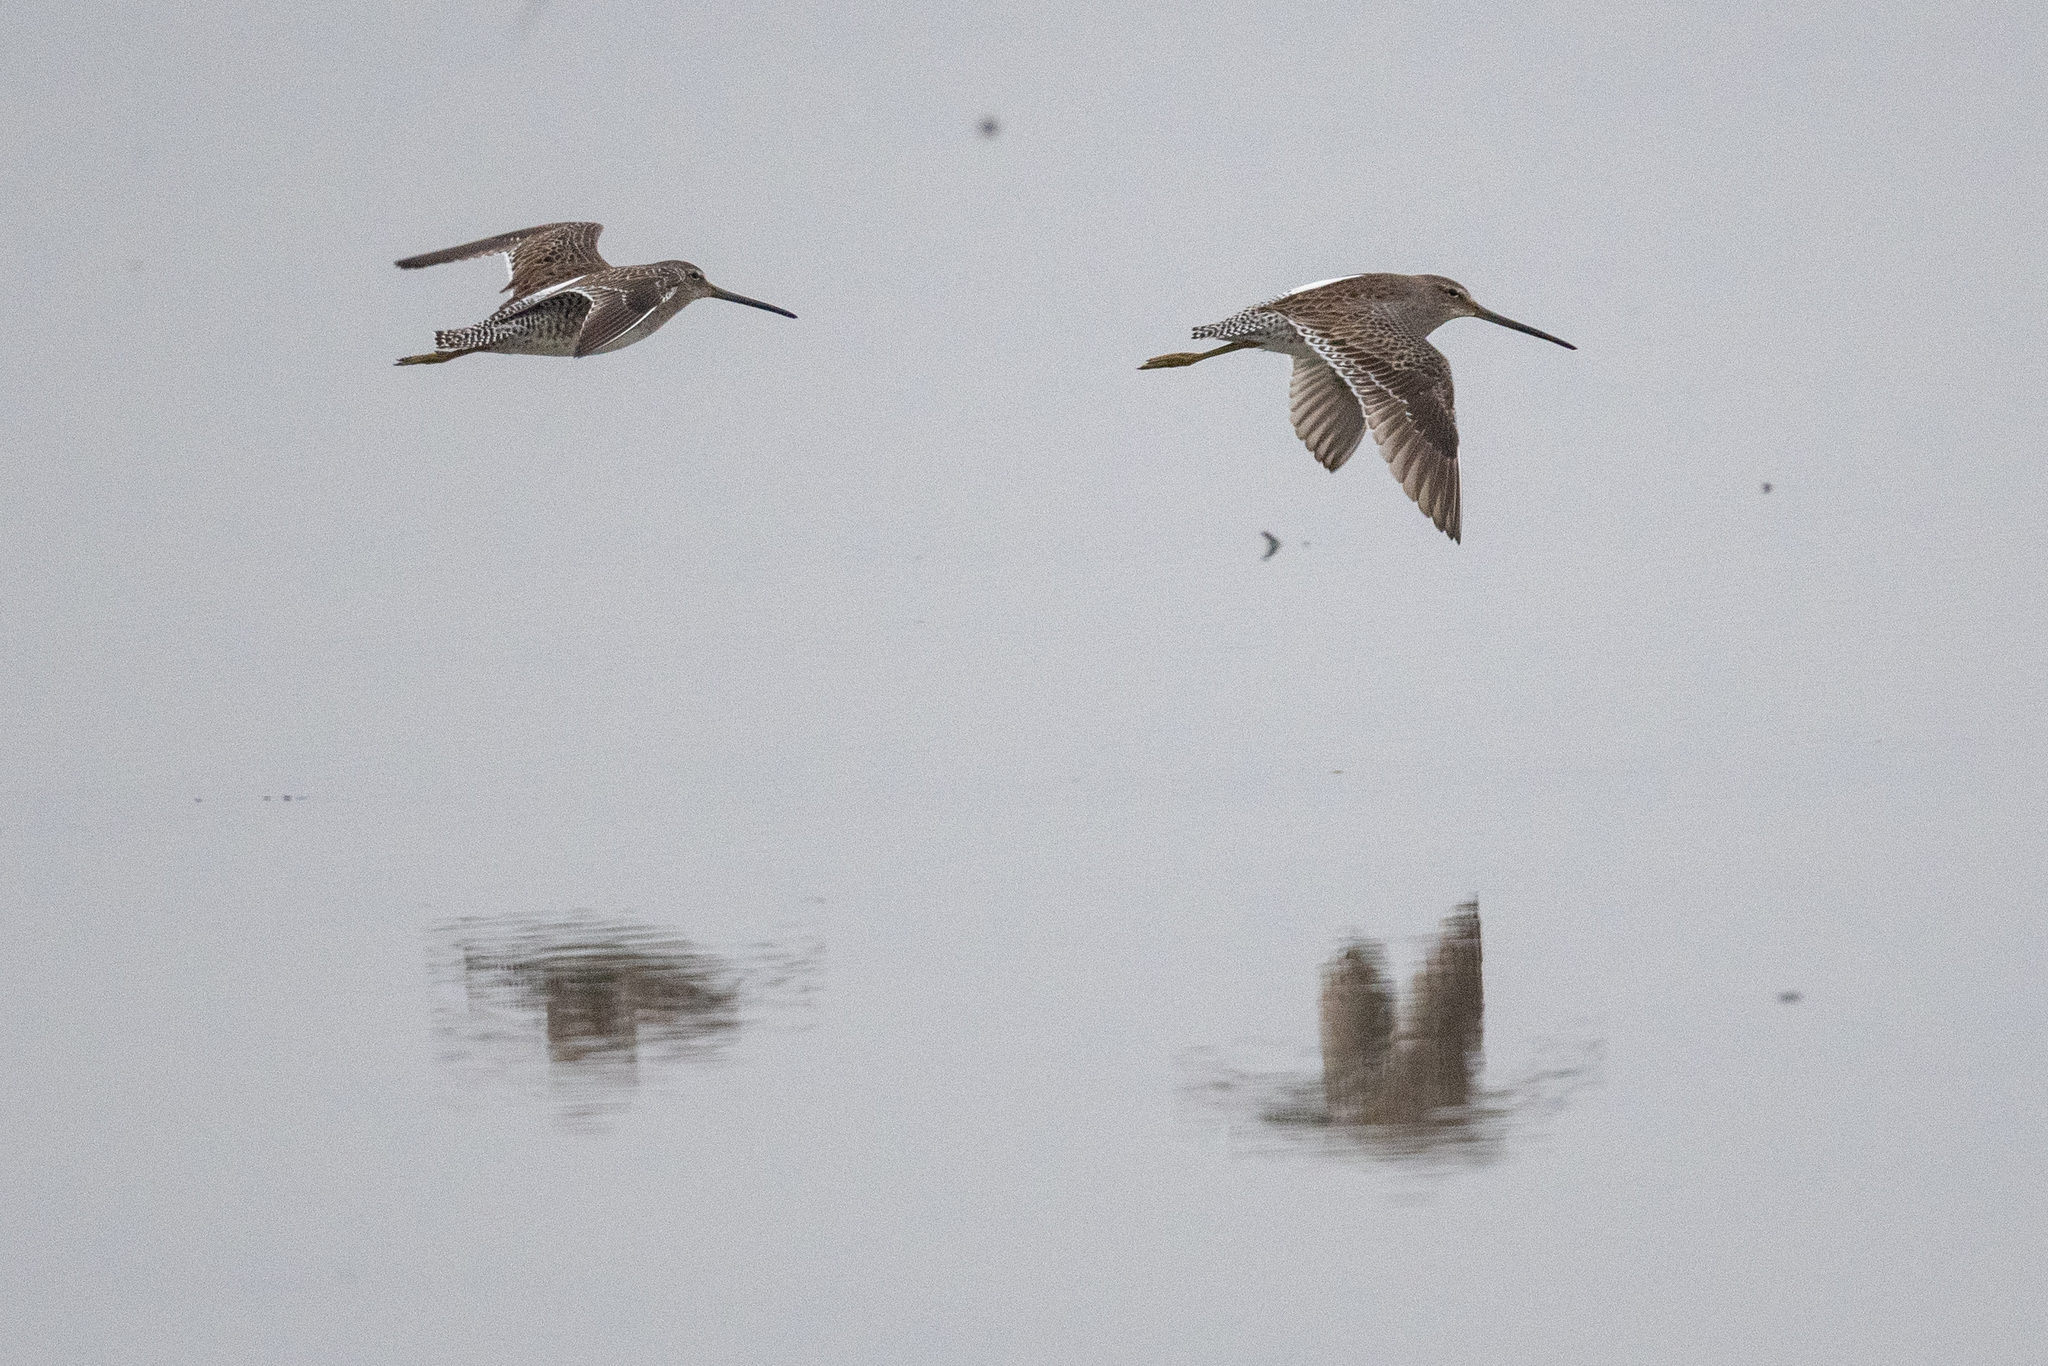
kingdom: Animalia
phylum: Chordata
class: Aves
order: Charadriiformes
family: Scolopacidae
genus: Limnodromus
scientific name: Limnodromus scolopaceus
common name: Long-billed dowitcher
